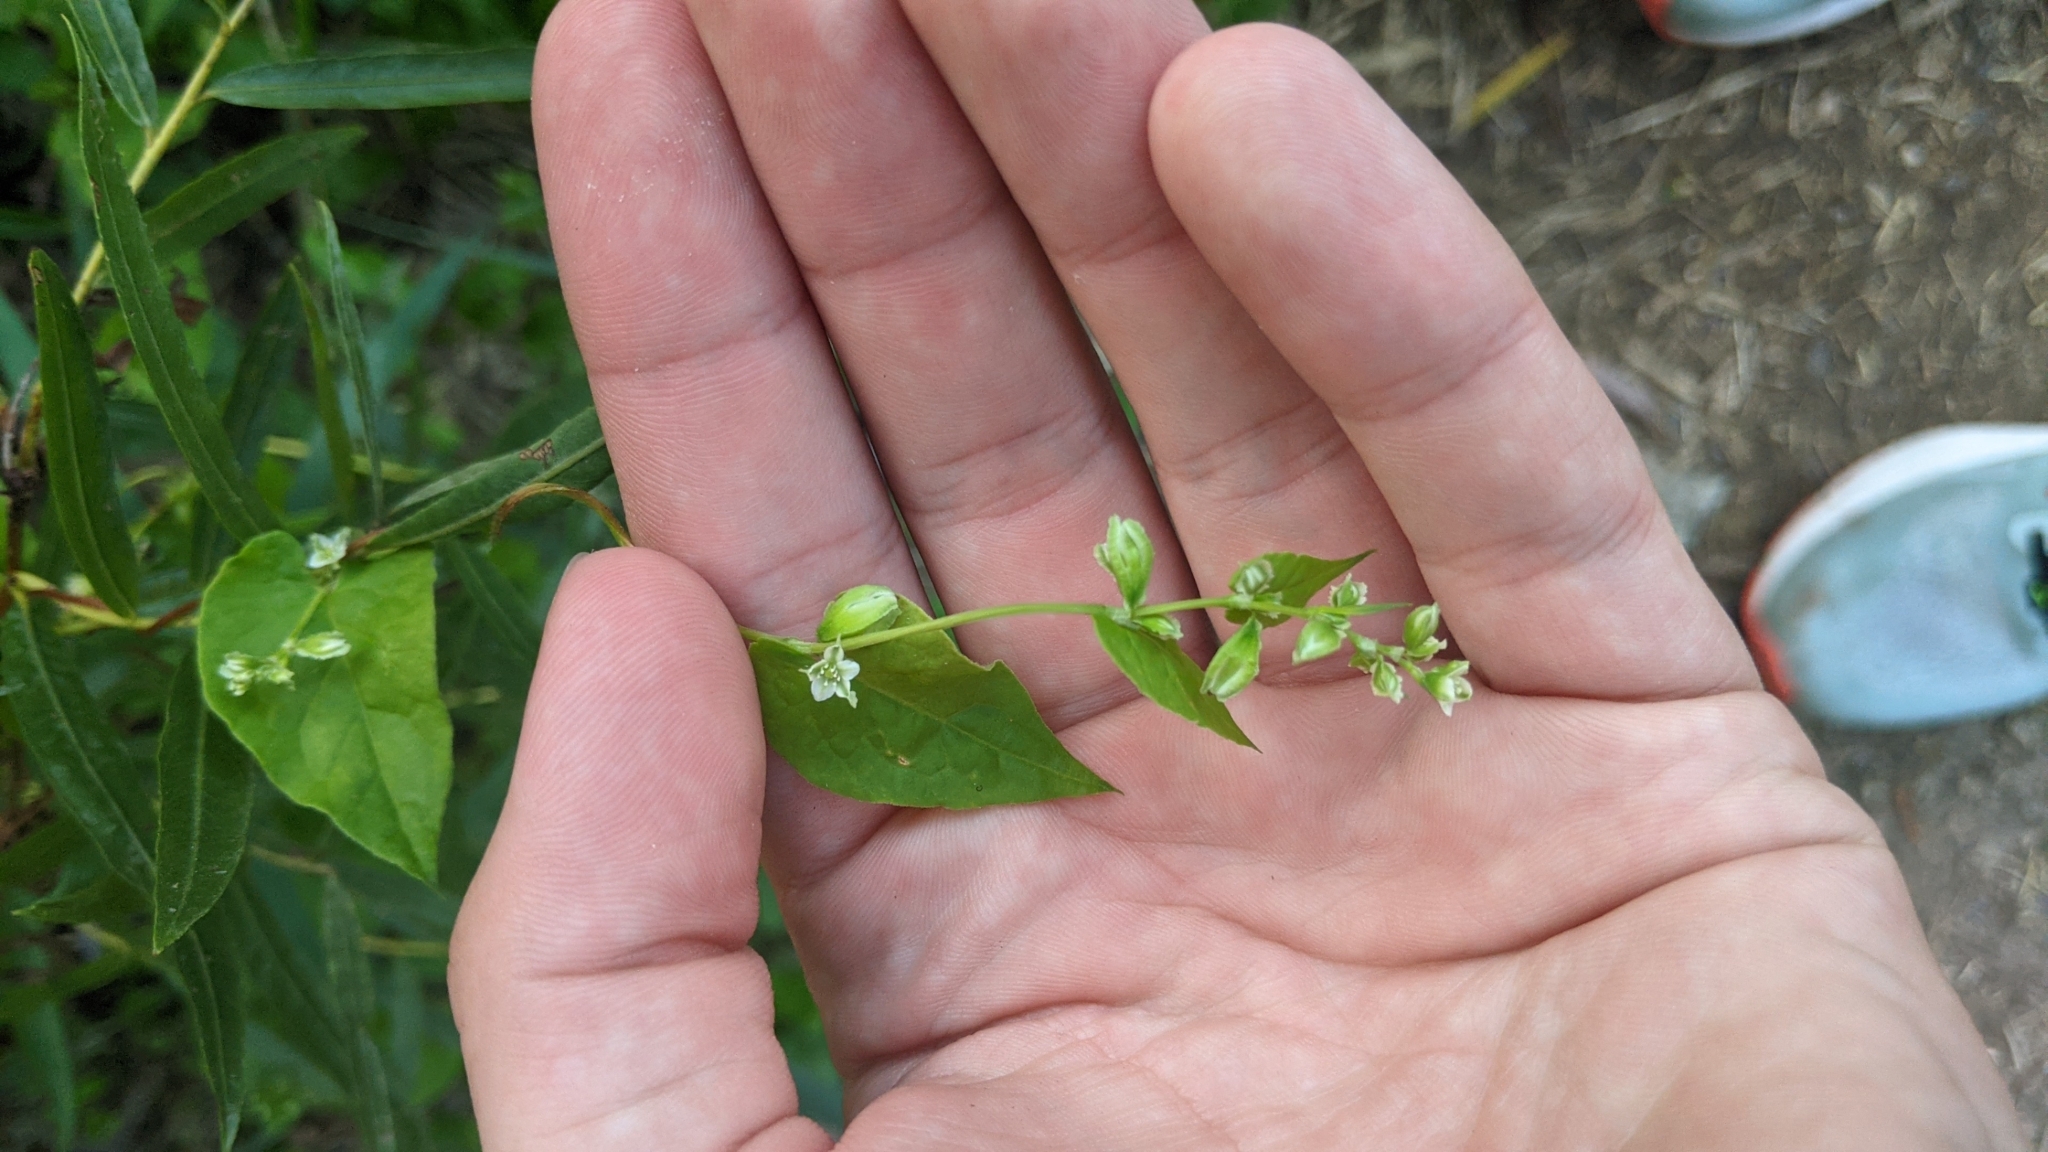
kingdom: Plantae
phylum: Tracheophyta
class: Magnoliopsida
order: Caryophyllales
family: Polygonaceae
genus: Fallopia
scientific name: Fallopia scandens
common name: Climbing false buckwheat
